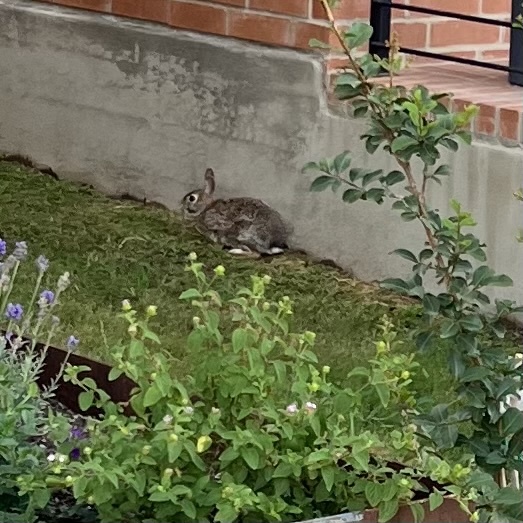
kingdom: Animalia
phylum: Chordata
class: Mammalia
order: Lagomorpha
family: Leporidae
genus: Sylvilagus
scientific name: Sylvilagus floridanus
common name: Eastern cottontail
